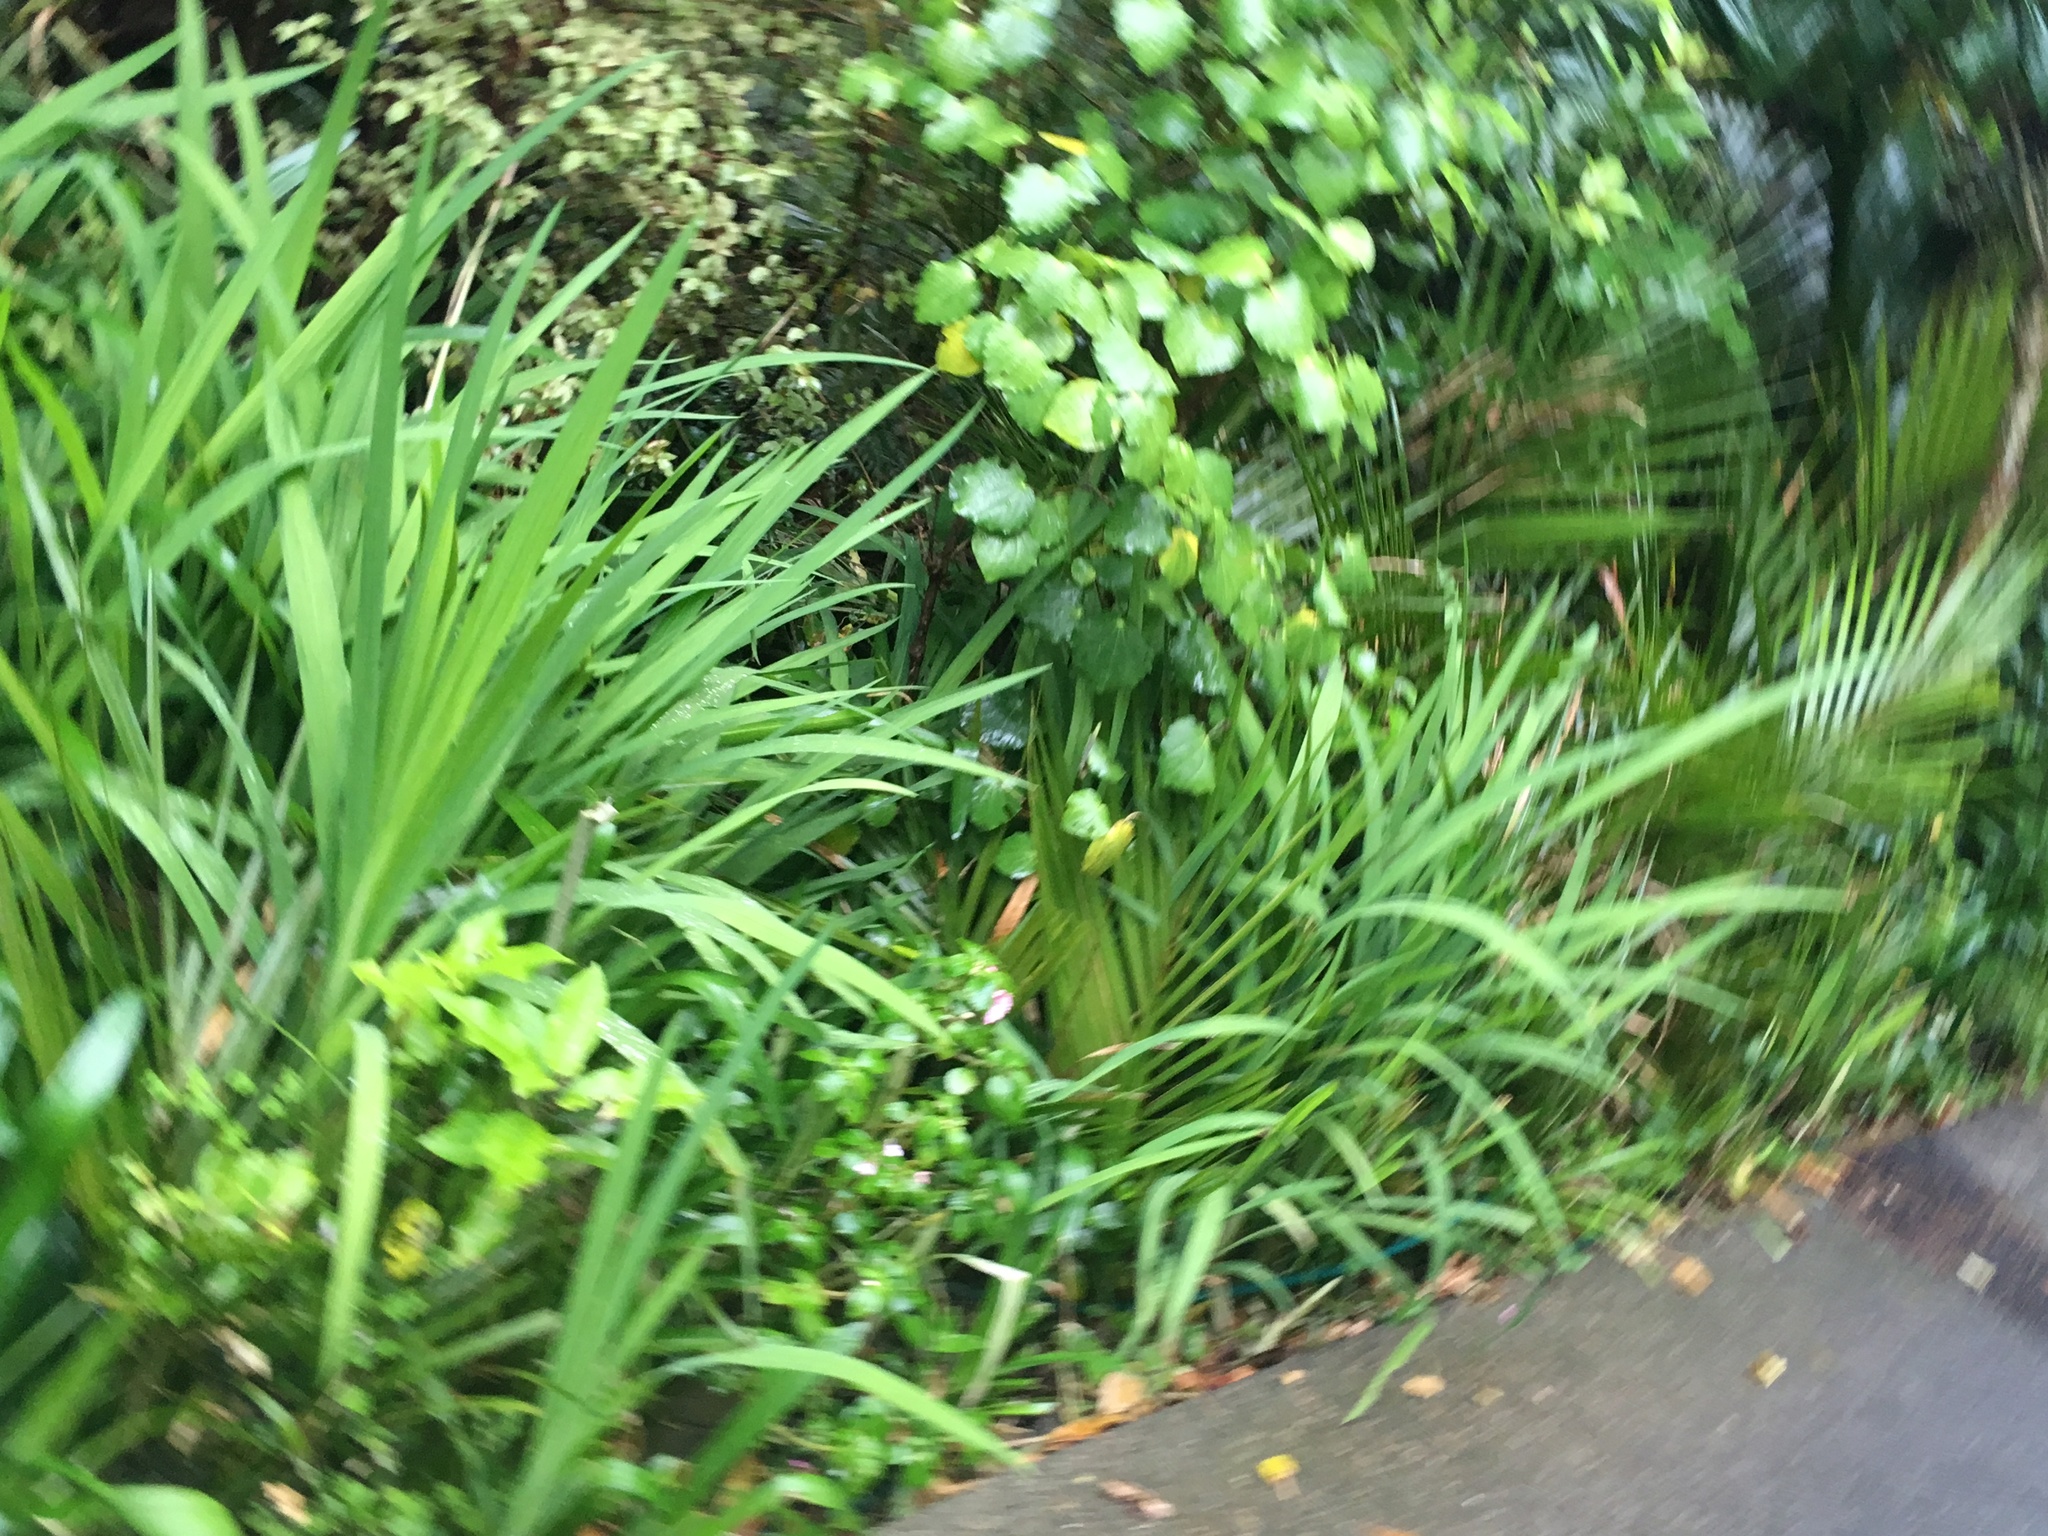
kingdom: Plantae
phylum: Tracheophyta
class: Liliopsida
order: Asparagales
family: Iridaceae
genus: Crocosmia
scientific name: Crocosmia crocosmiiflora
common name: Montbretia
